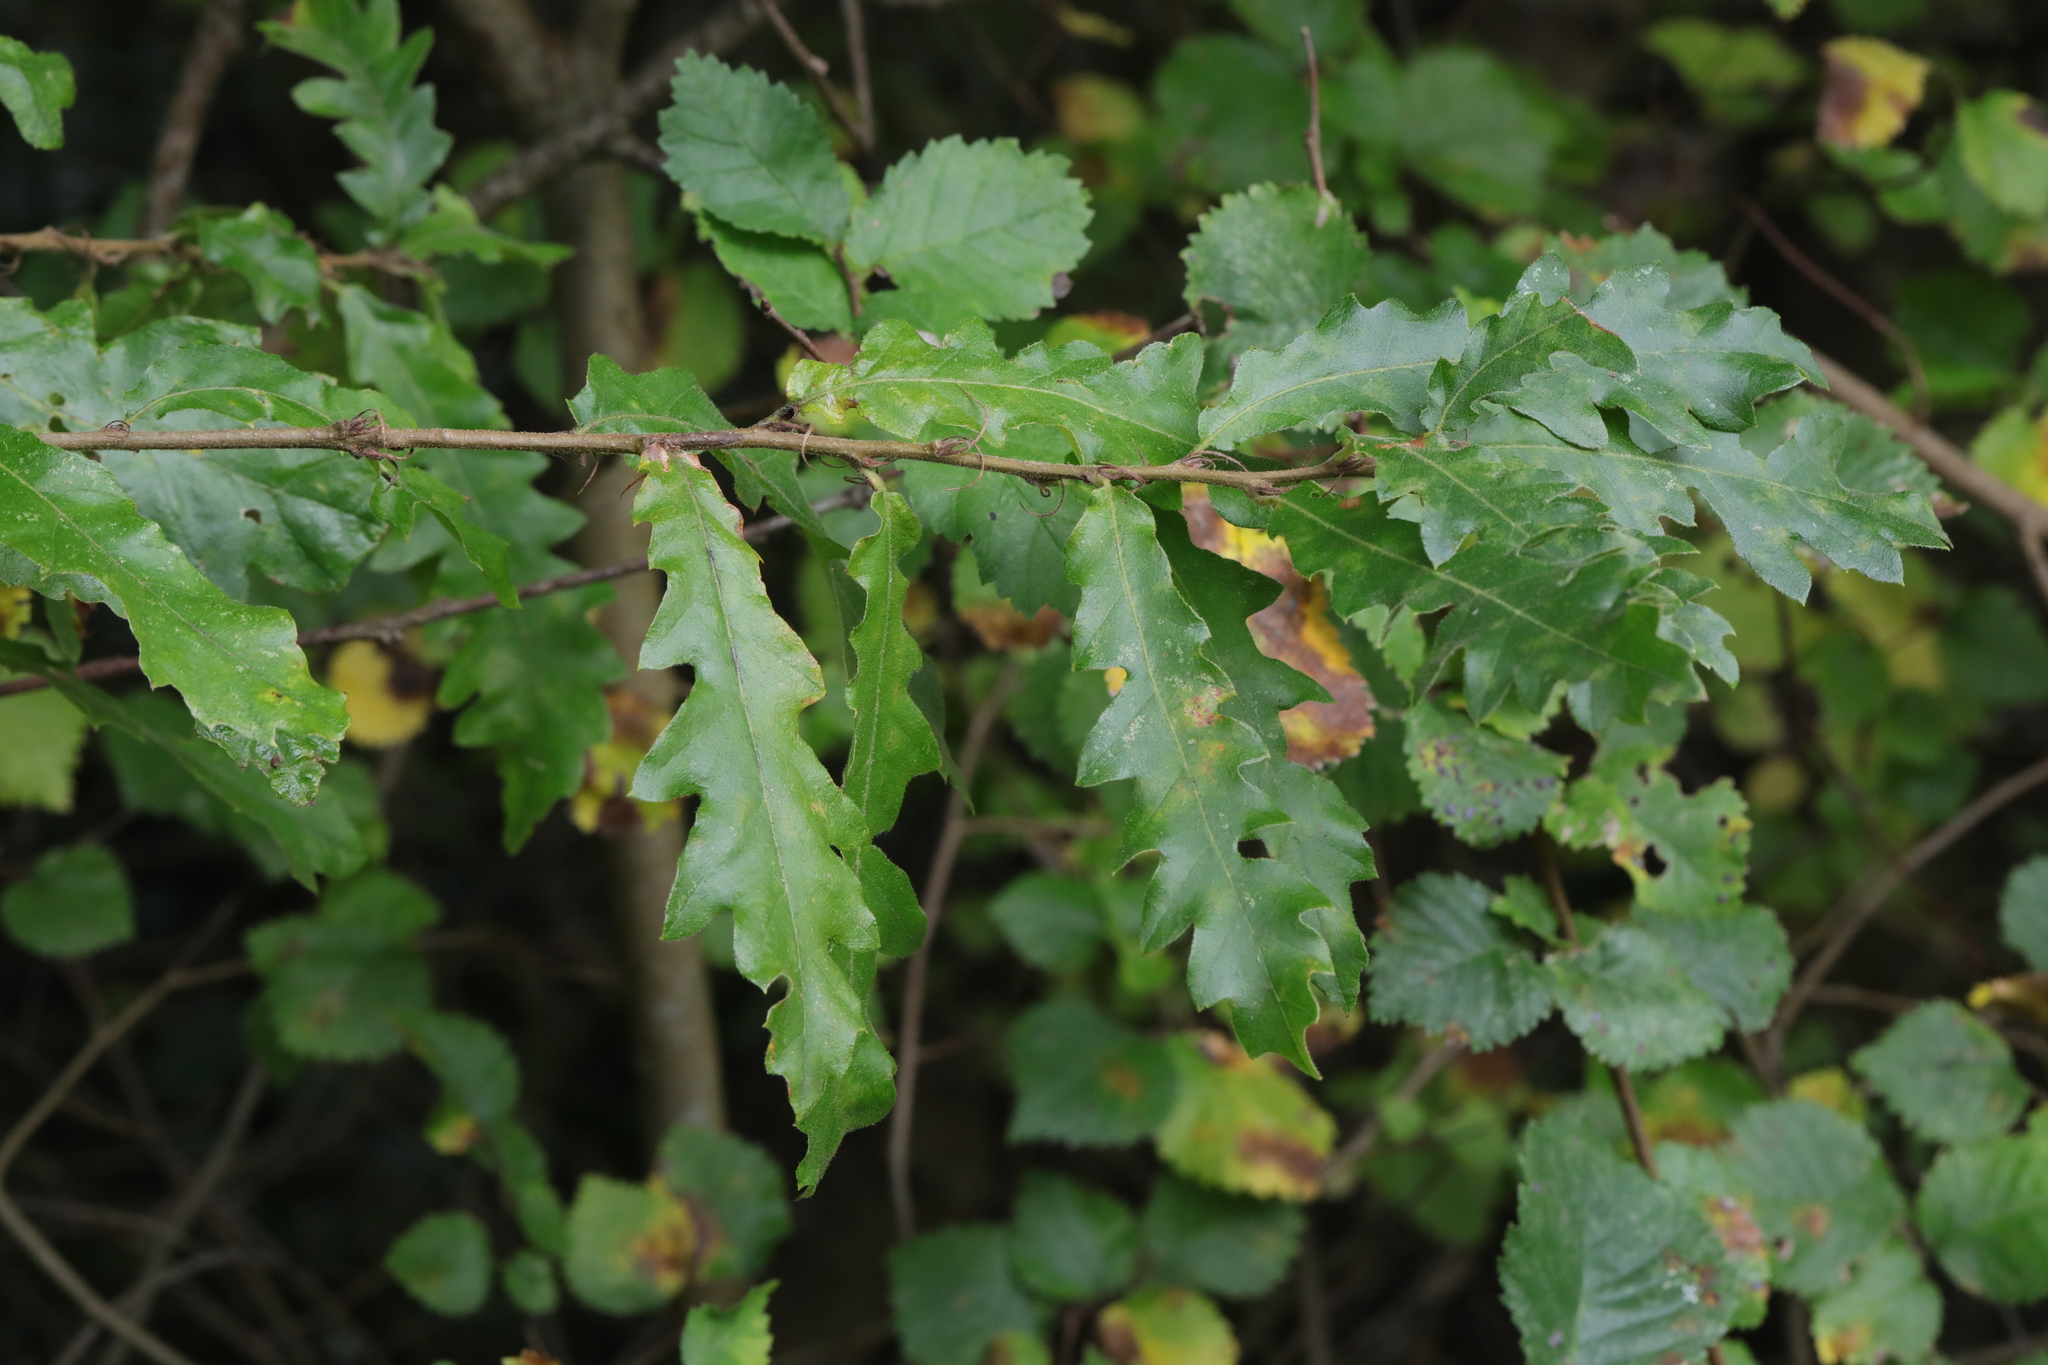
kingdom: Plantae
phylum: Tracheophyta
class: Magnoliopsida
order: Fagales
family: Fagaceae
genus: Quercus
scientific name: Quercus cerris
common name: Turkey oak
